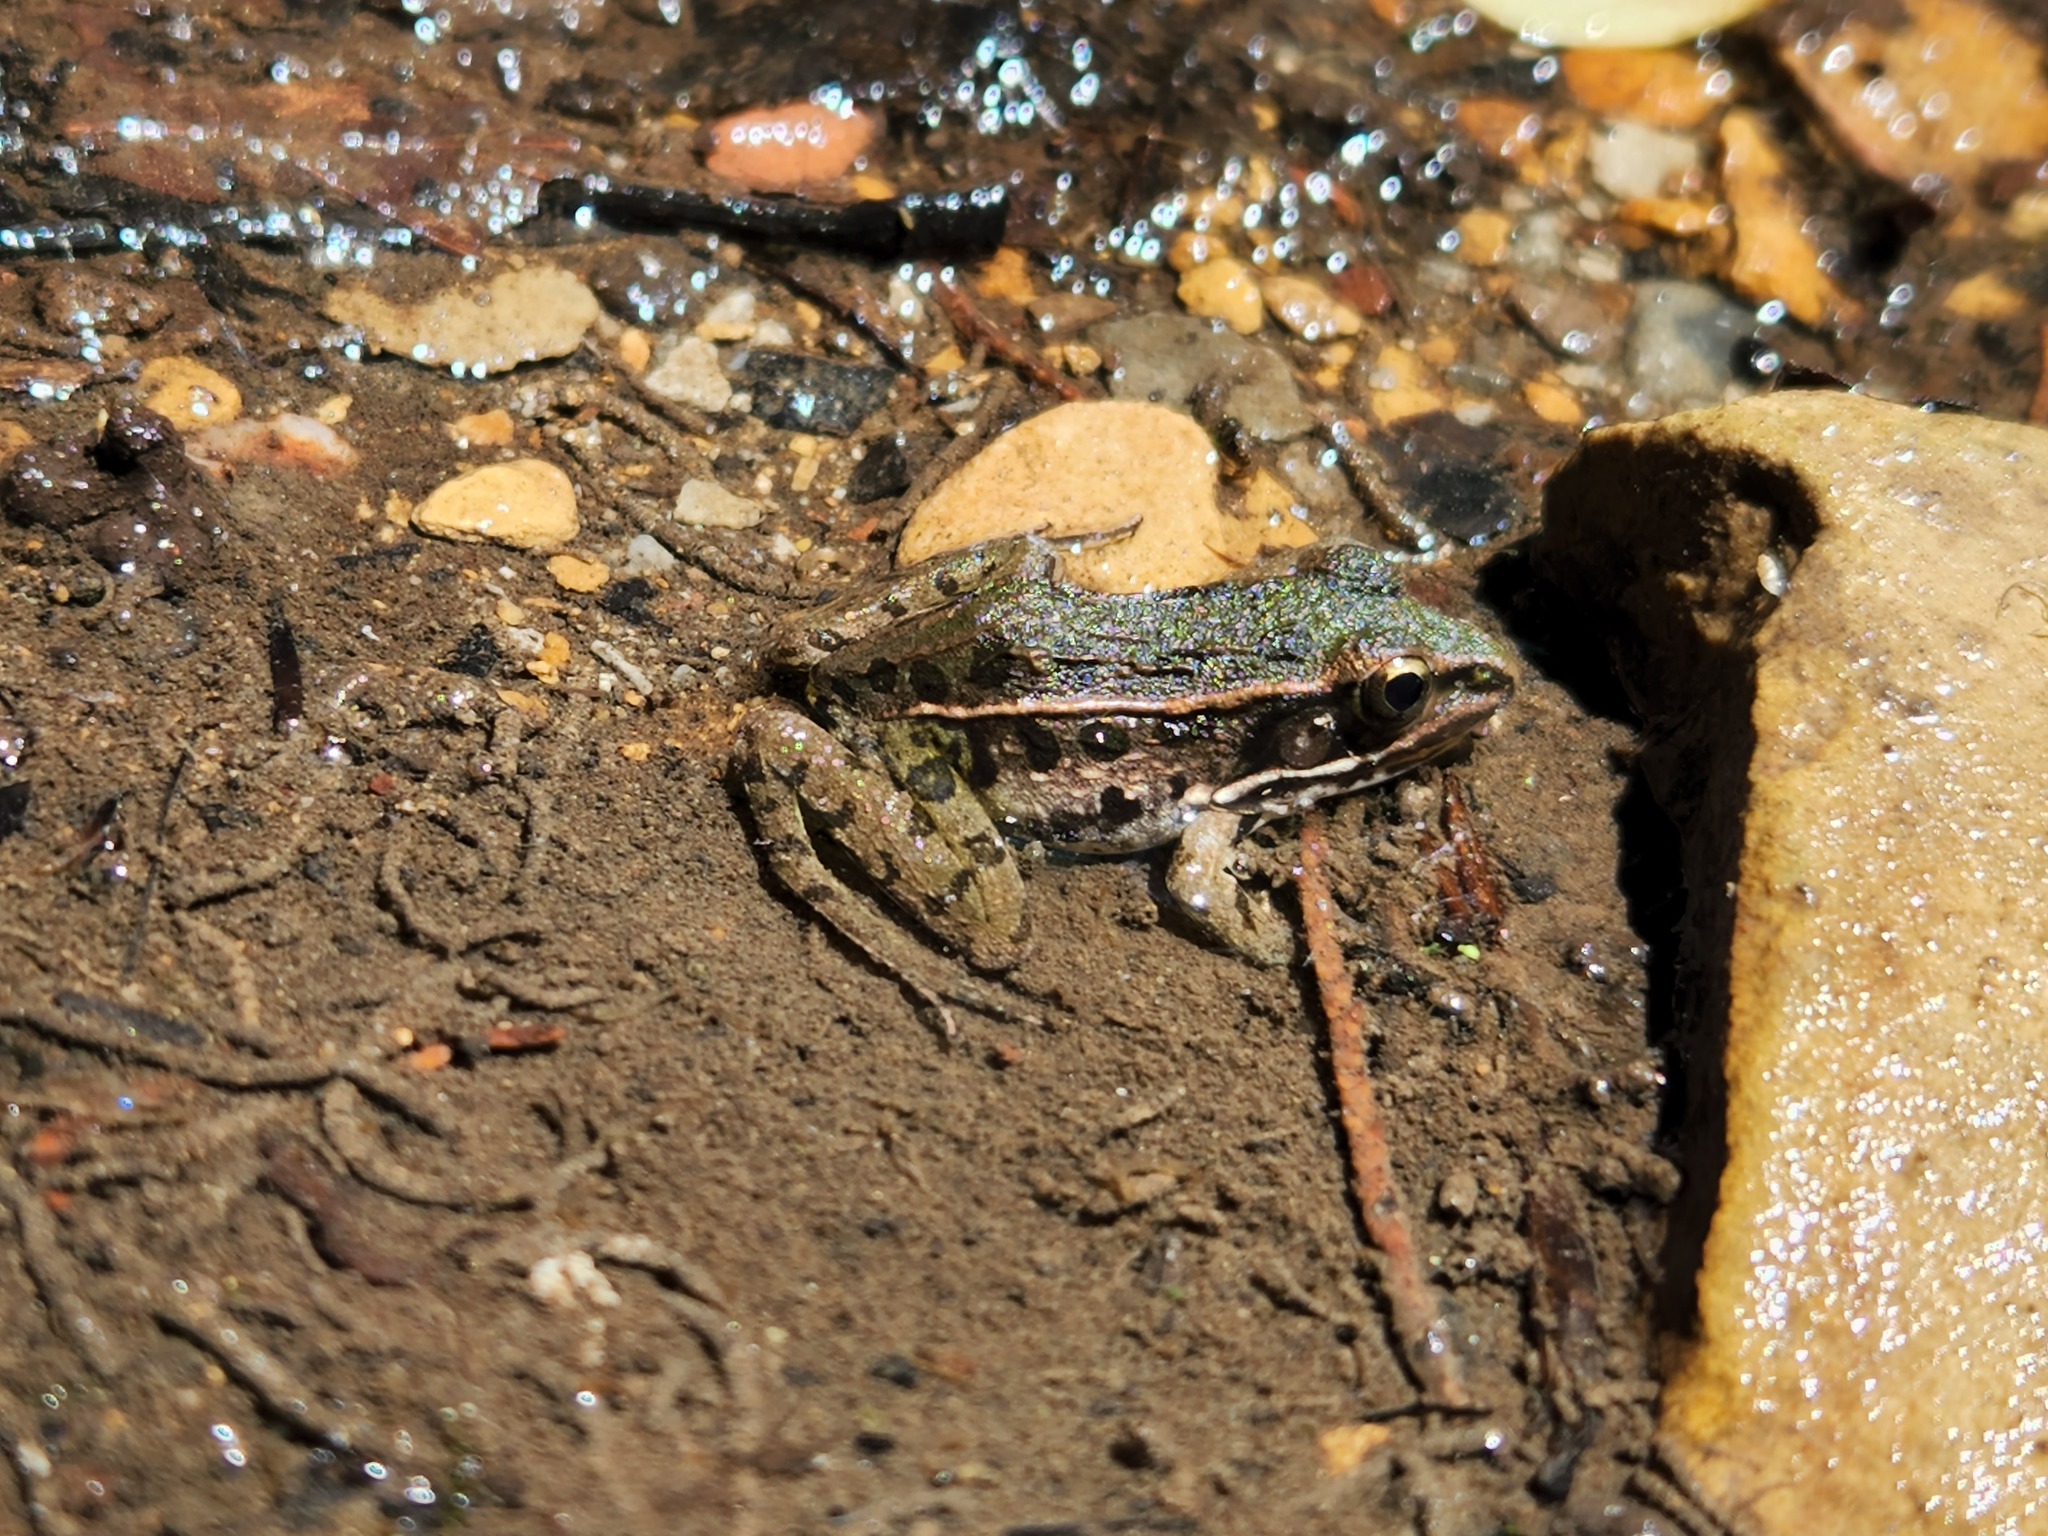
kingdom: Animalia
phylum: Chordata
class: Amphibia
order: Anura
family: Ranidae
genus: Lithobates
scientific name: Lithobates sphenocephalus
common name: Southern leopard frog
